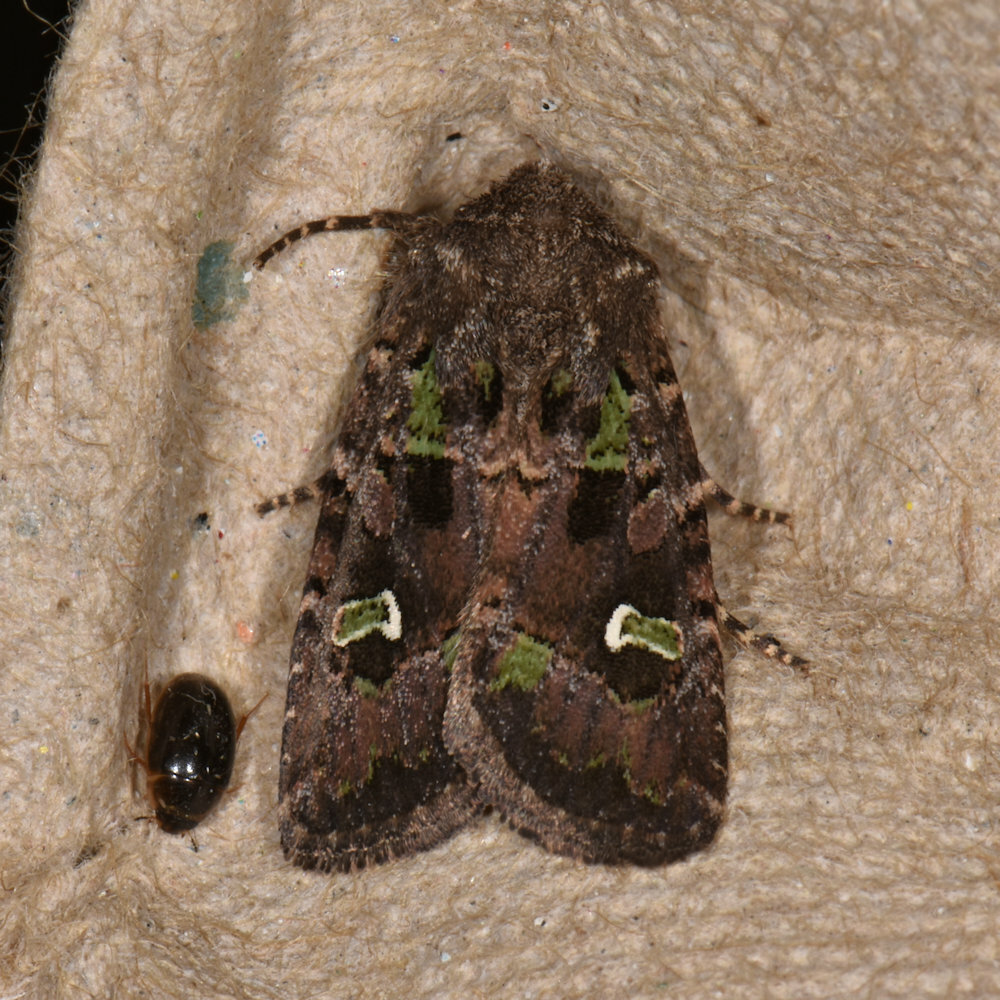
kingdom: Animalia
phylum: Arthropoda
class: Insecta
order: Lepidoptera
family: Noctuidae
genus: Lacinipolia
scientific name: Lacinipolia renigera
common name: Kidney-spotted minor
